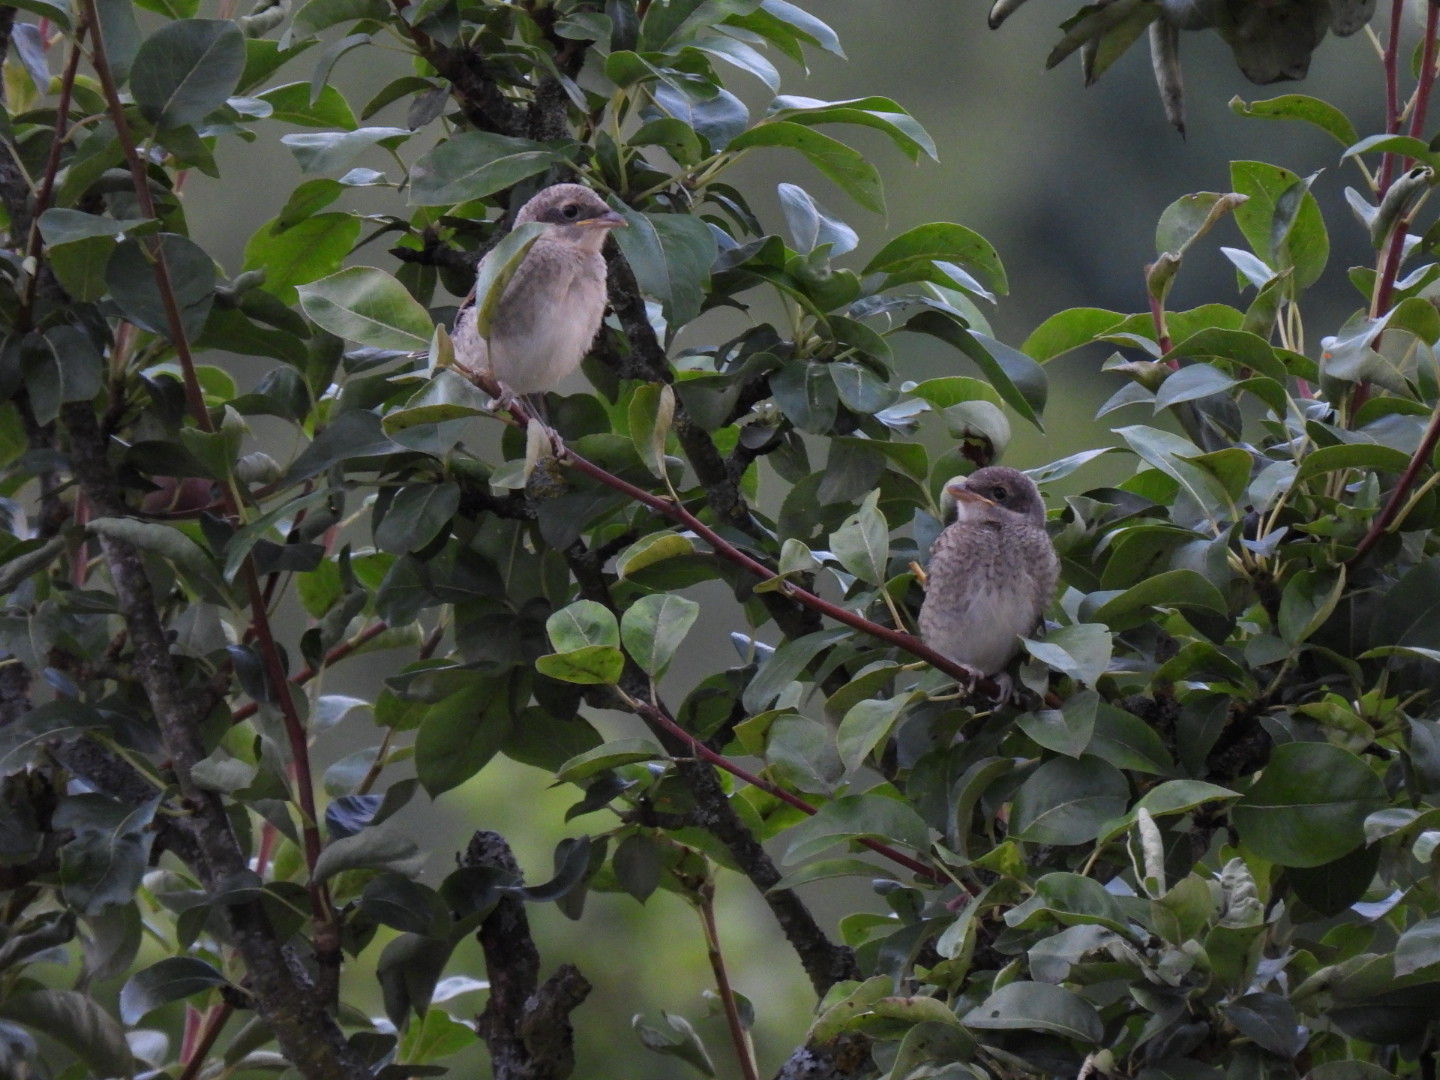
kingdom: Animalia
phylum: Chordata
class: Aves
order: Passeriformes
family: Laniidae
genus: Lanius
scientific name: Lanius collurio
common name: Red-backed shrike
